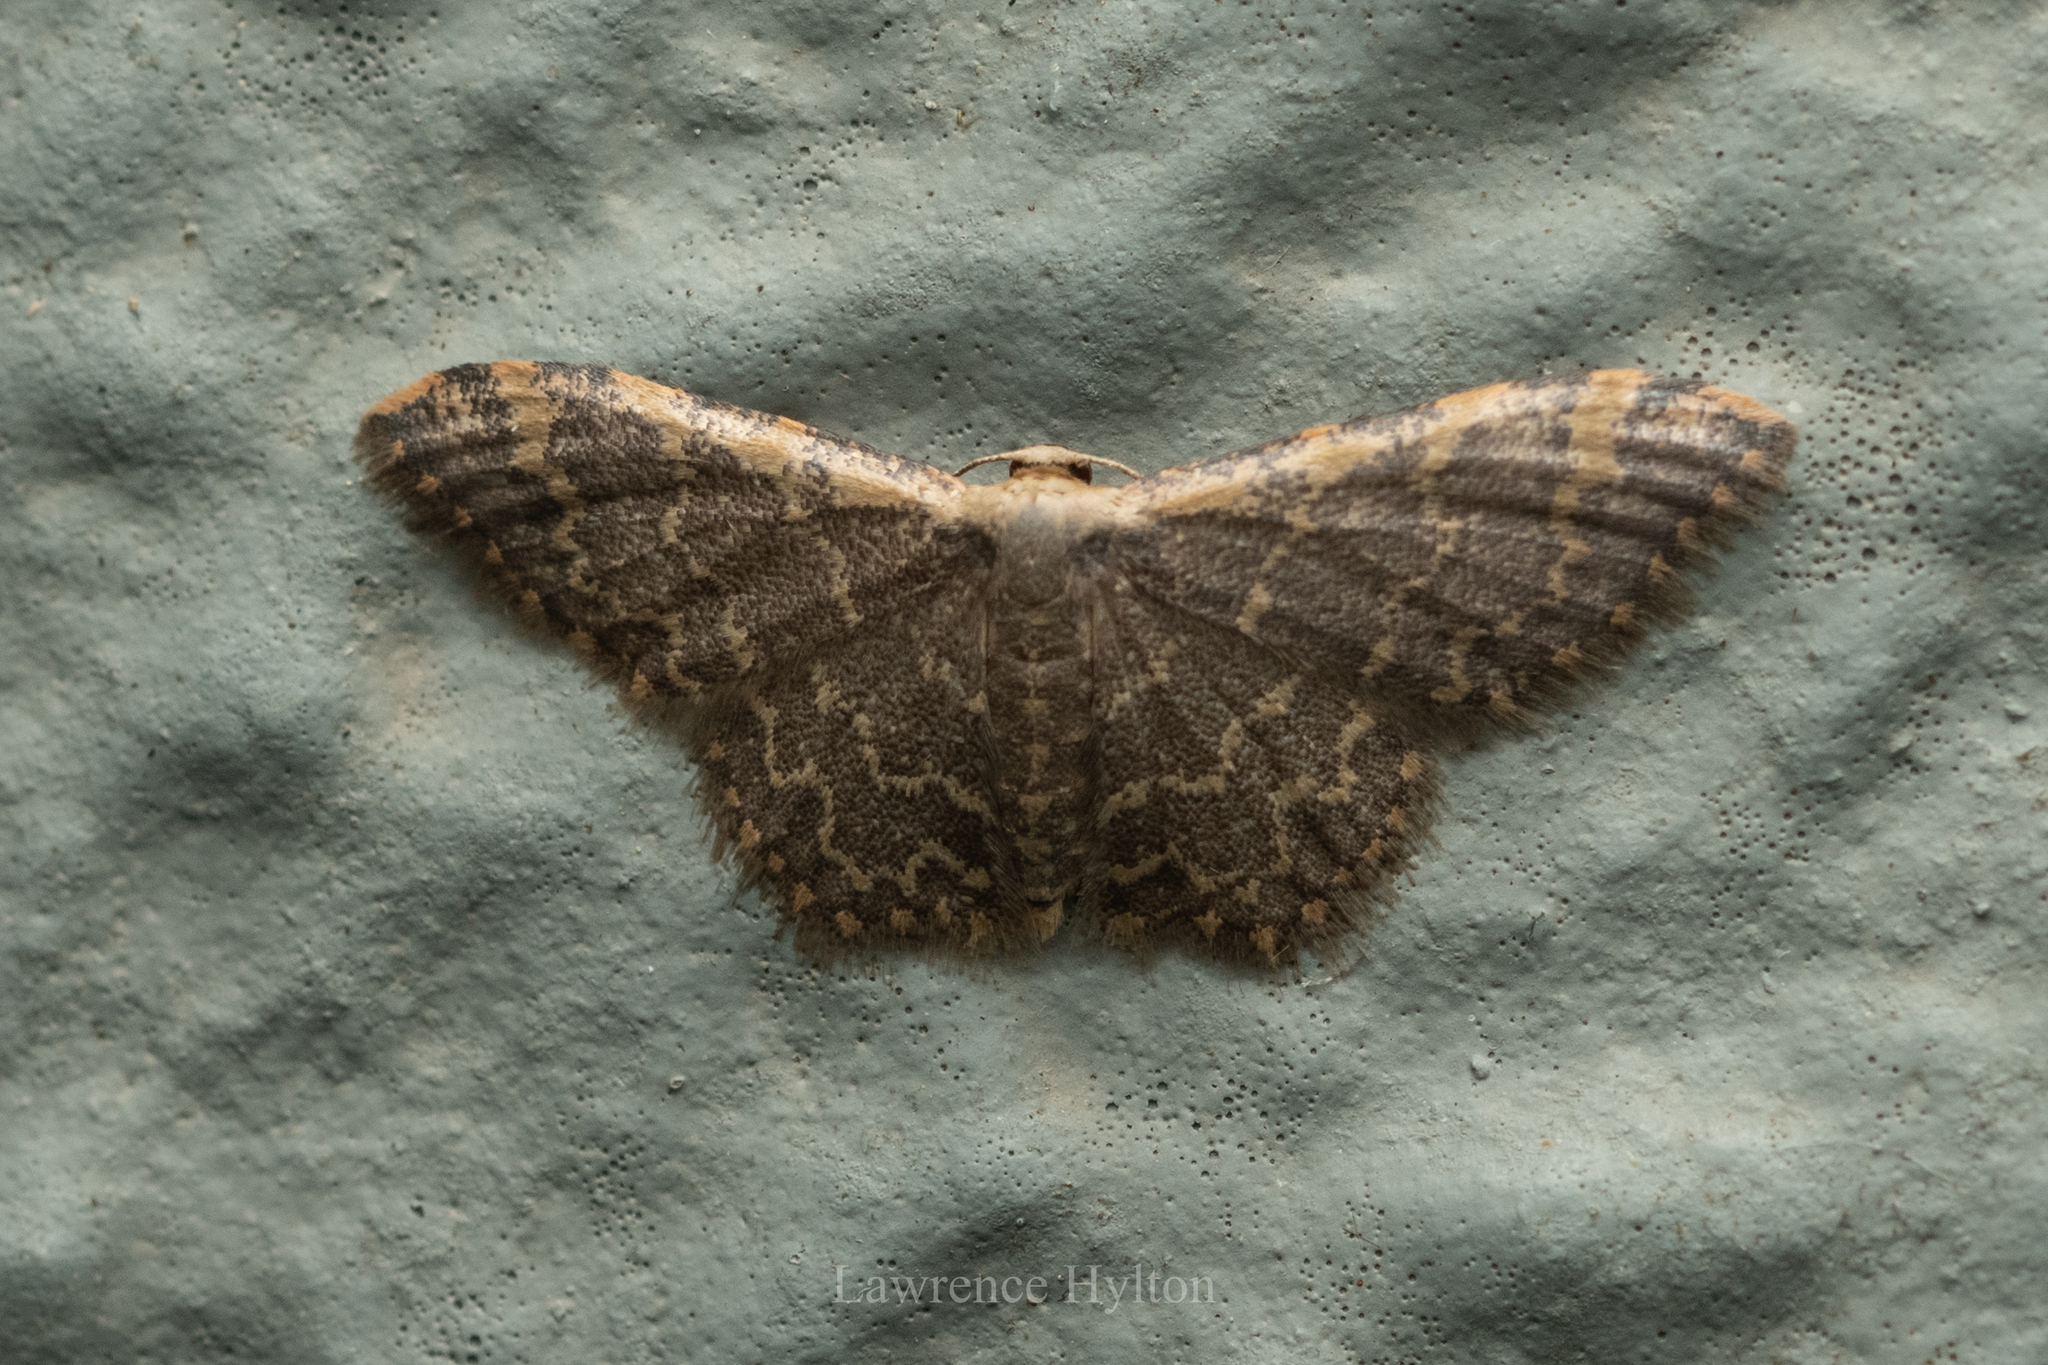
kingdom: Animalia
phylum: Arthropoda
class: Insecta
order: Lepidoptera
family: Geometridae
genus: Idaea
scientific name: Idaea costiguttata
